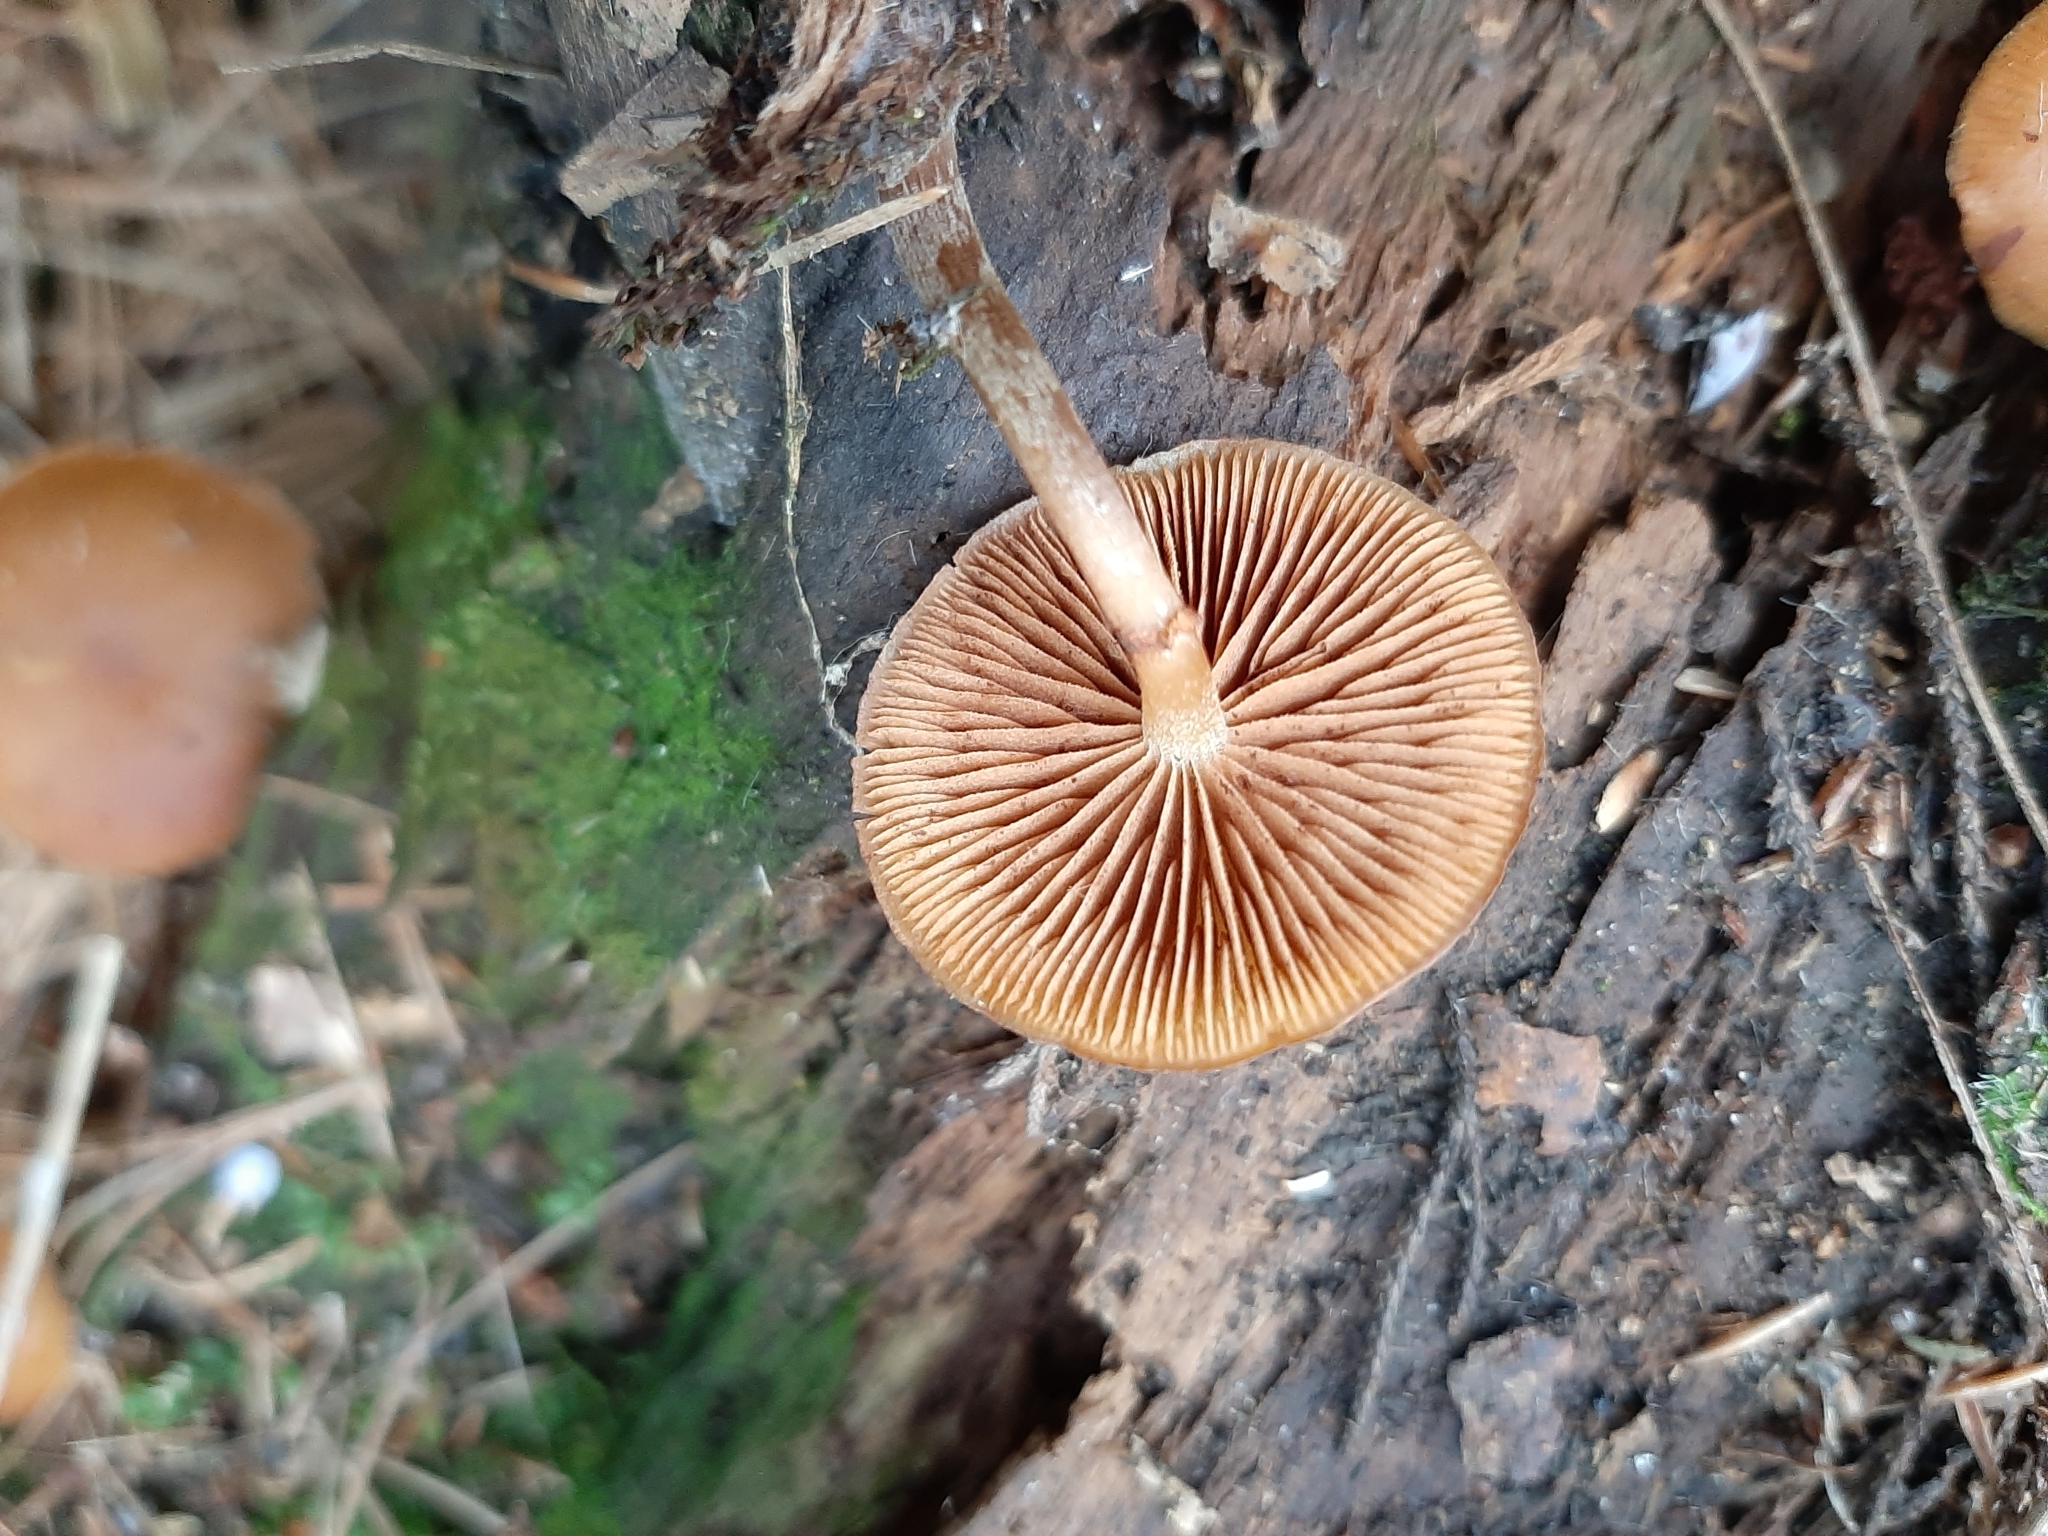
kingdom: Fungi
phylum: Basidiomycota
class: Agaricomycetes
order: Agaricales
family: Hymenogastraceae
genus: Galerina
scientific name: Galerina marginata
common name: Funeral bell
